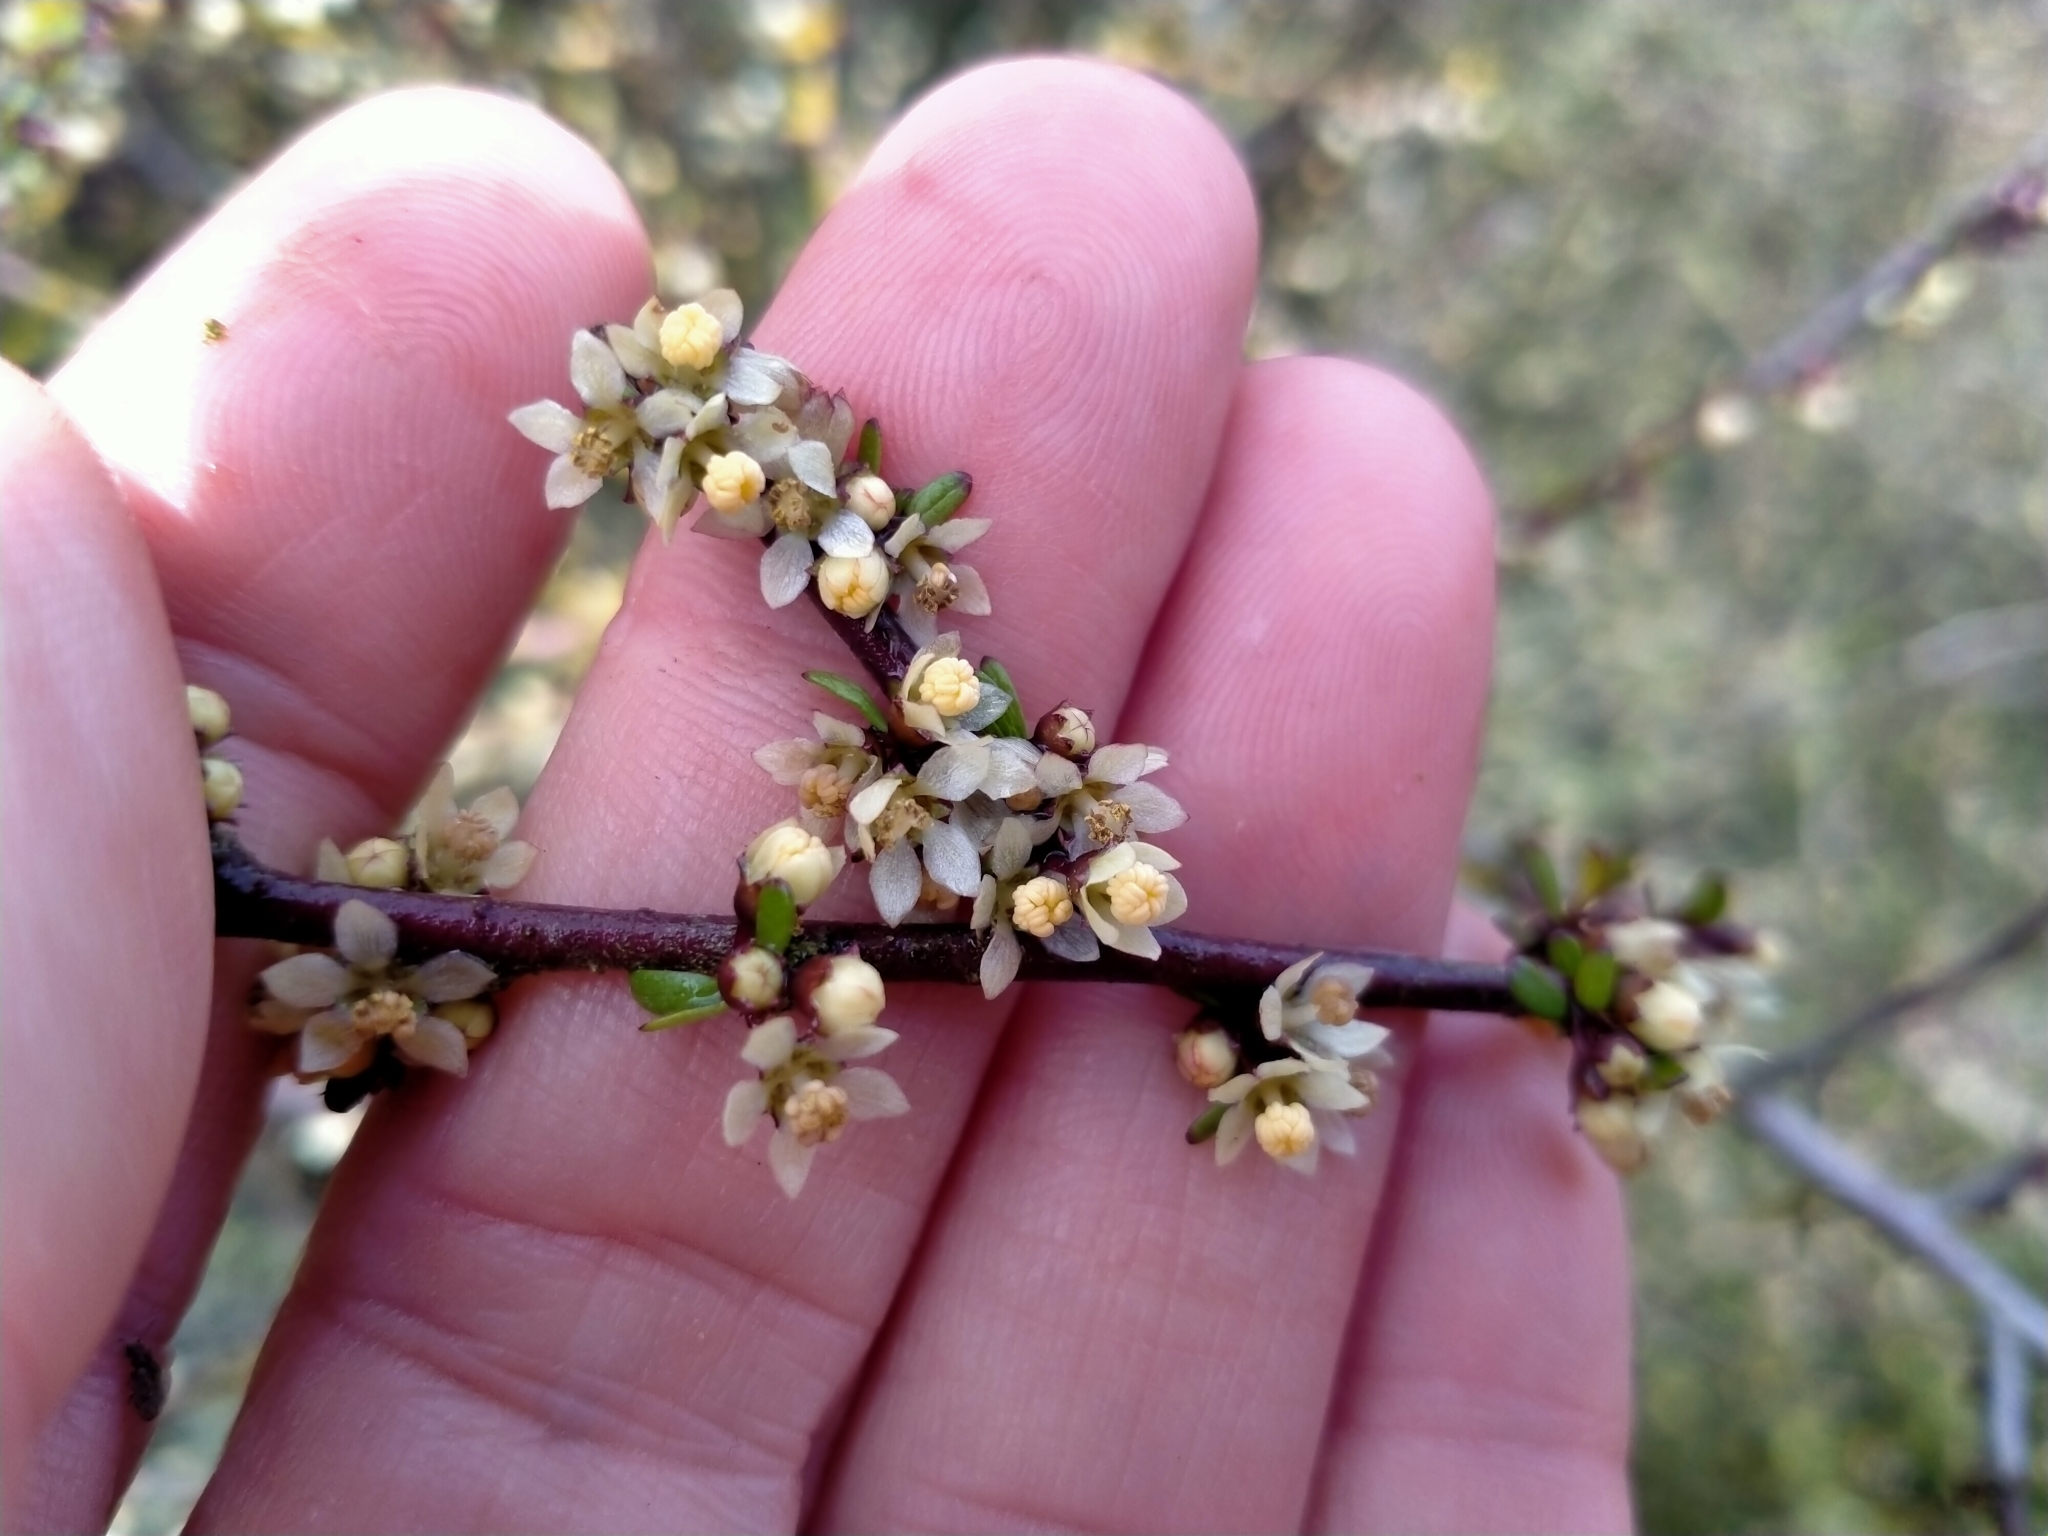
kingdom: Plantae
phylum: Tracheophyta
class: Magnoliopsida
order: Malvales
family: Malvaceae
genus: Plagianthus
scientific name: Plagianthus divaricatus
